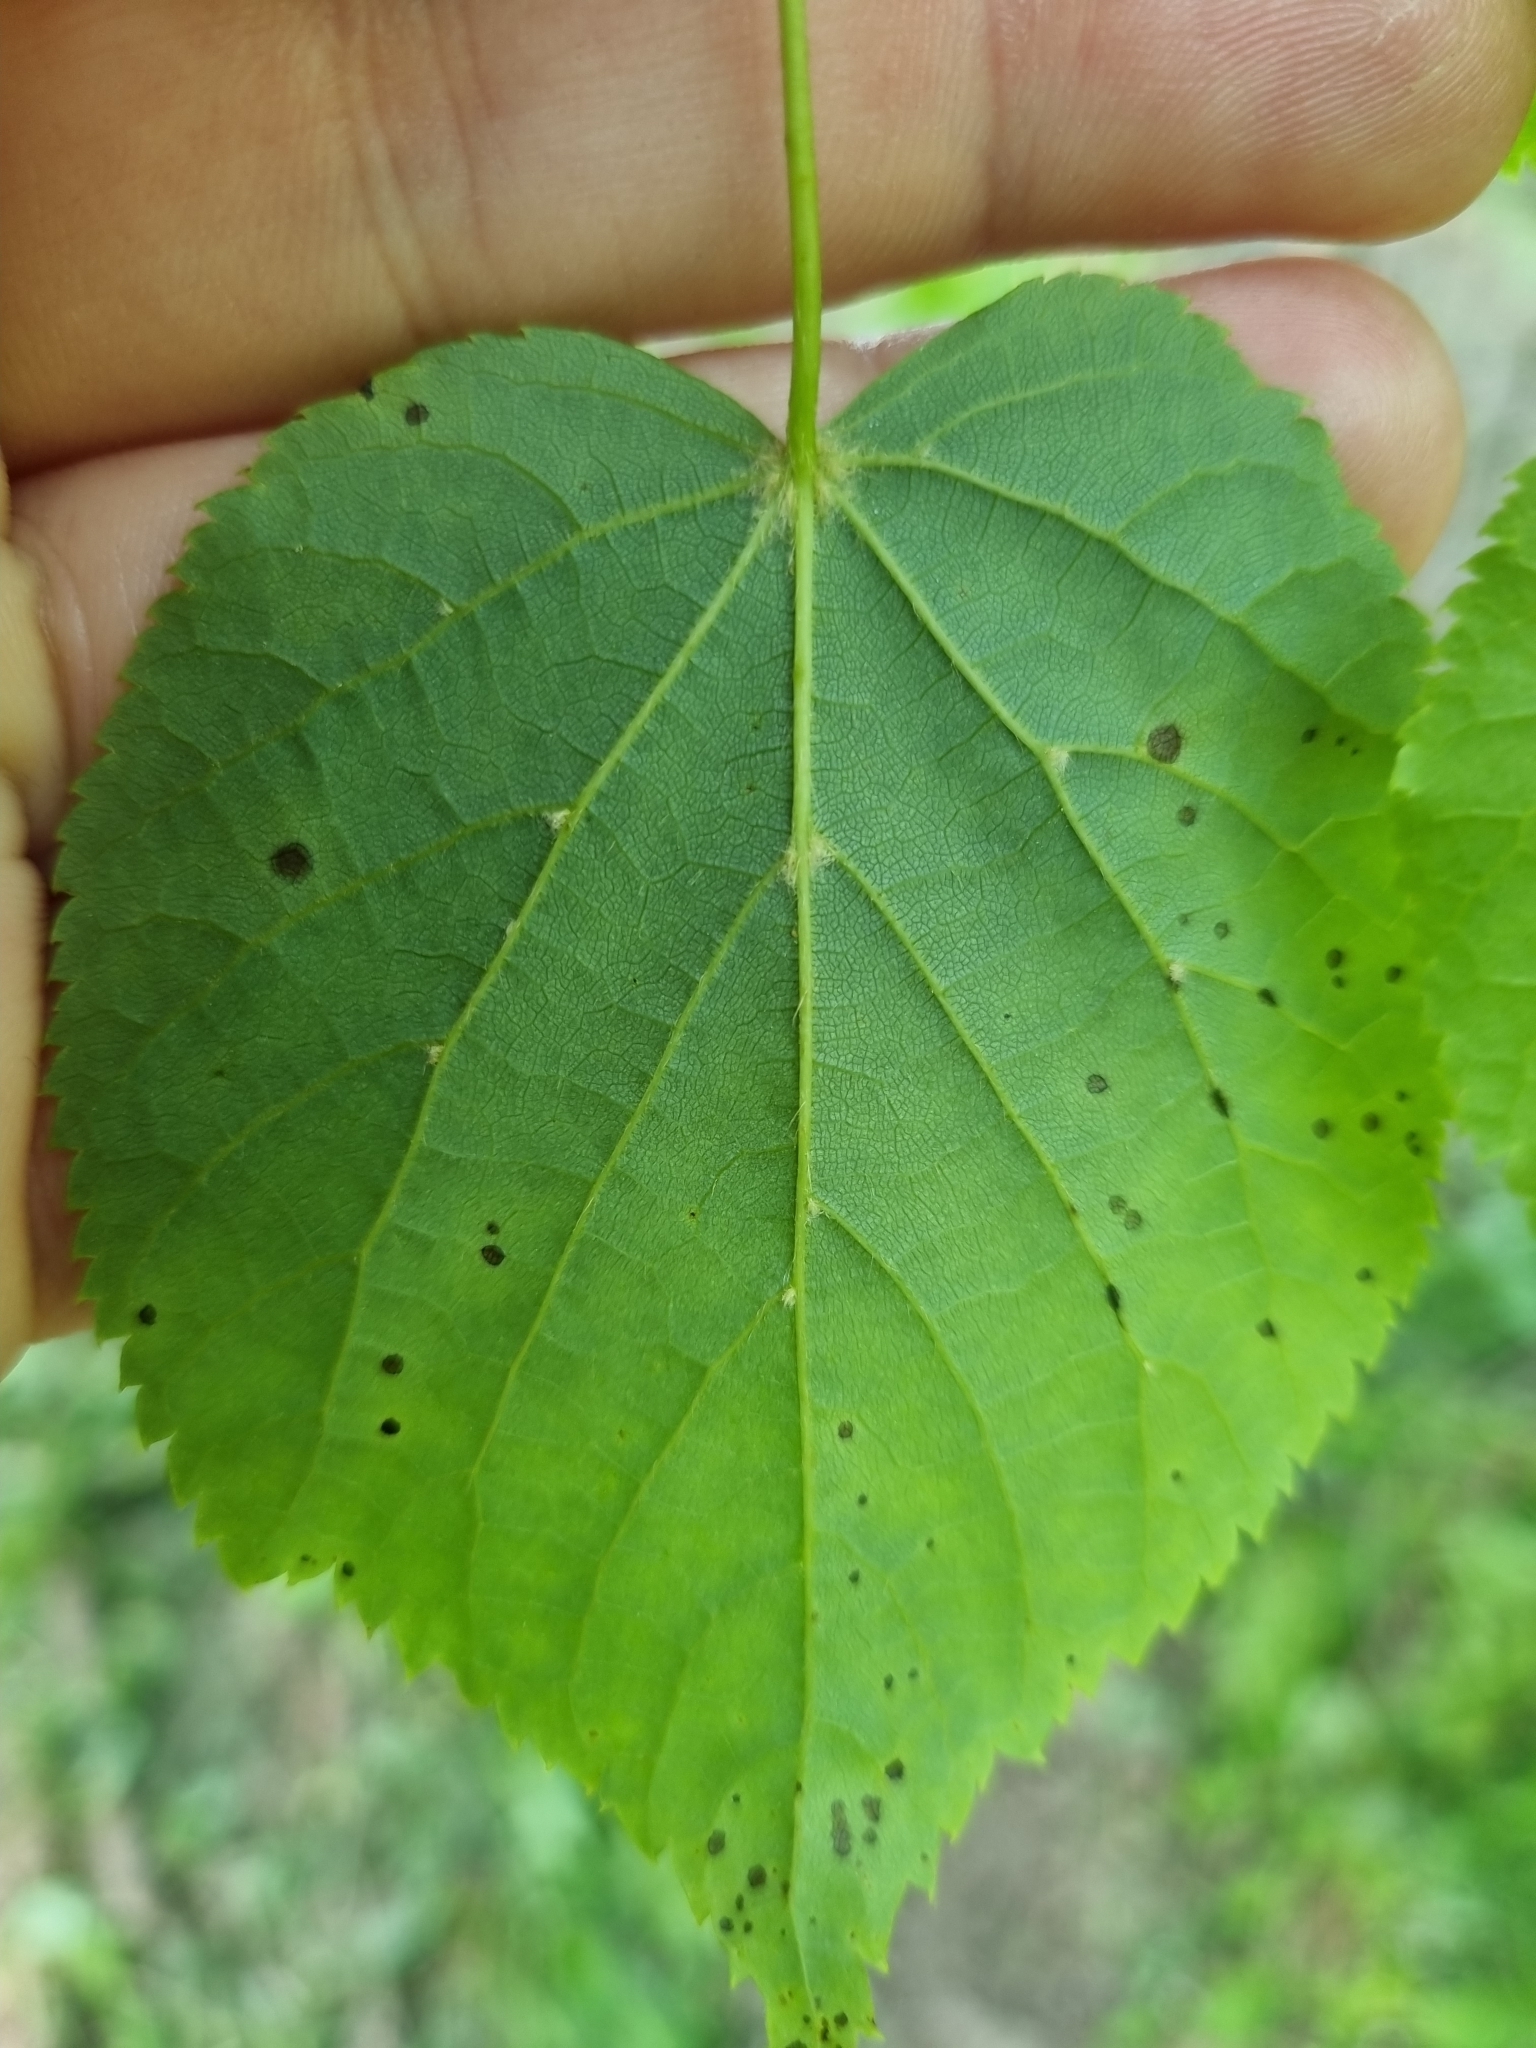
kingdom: Plantae
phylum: Tracheophyta
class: Magnoliopsida
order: Malvales
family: Malvaceae
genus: Tilia
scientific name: Tilia cordata
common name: Small-leaved lime
